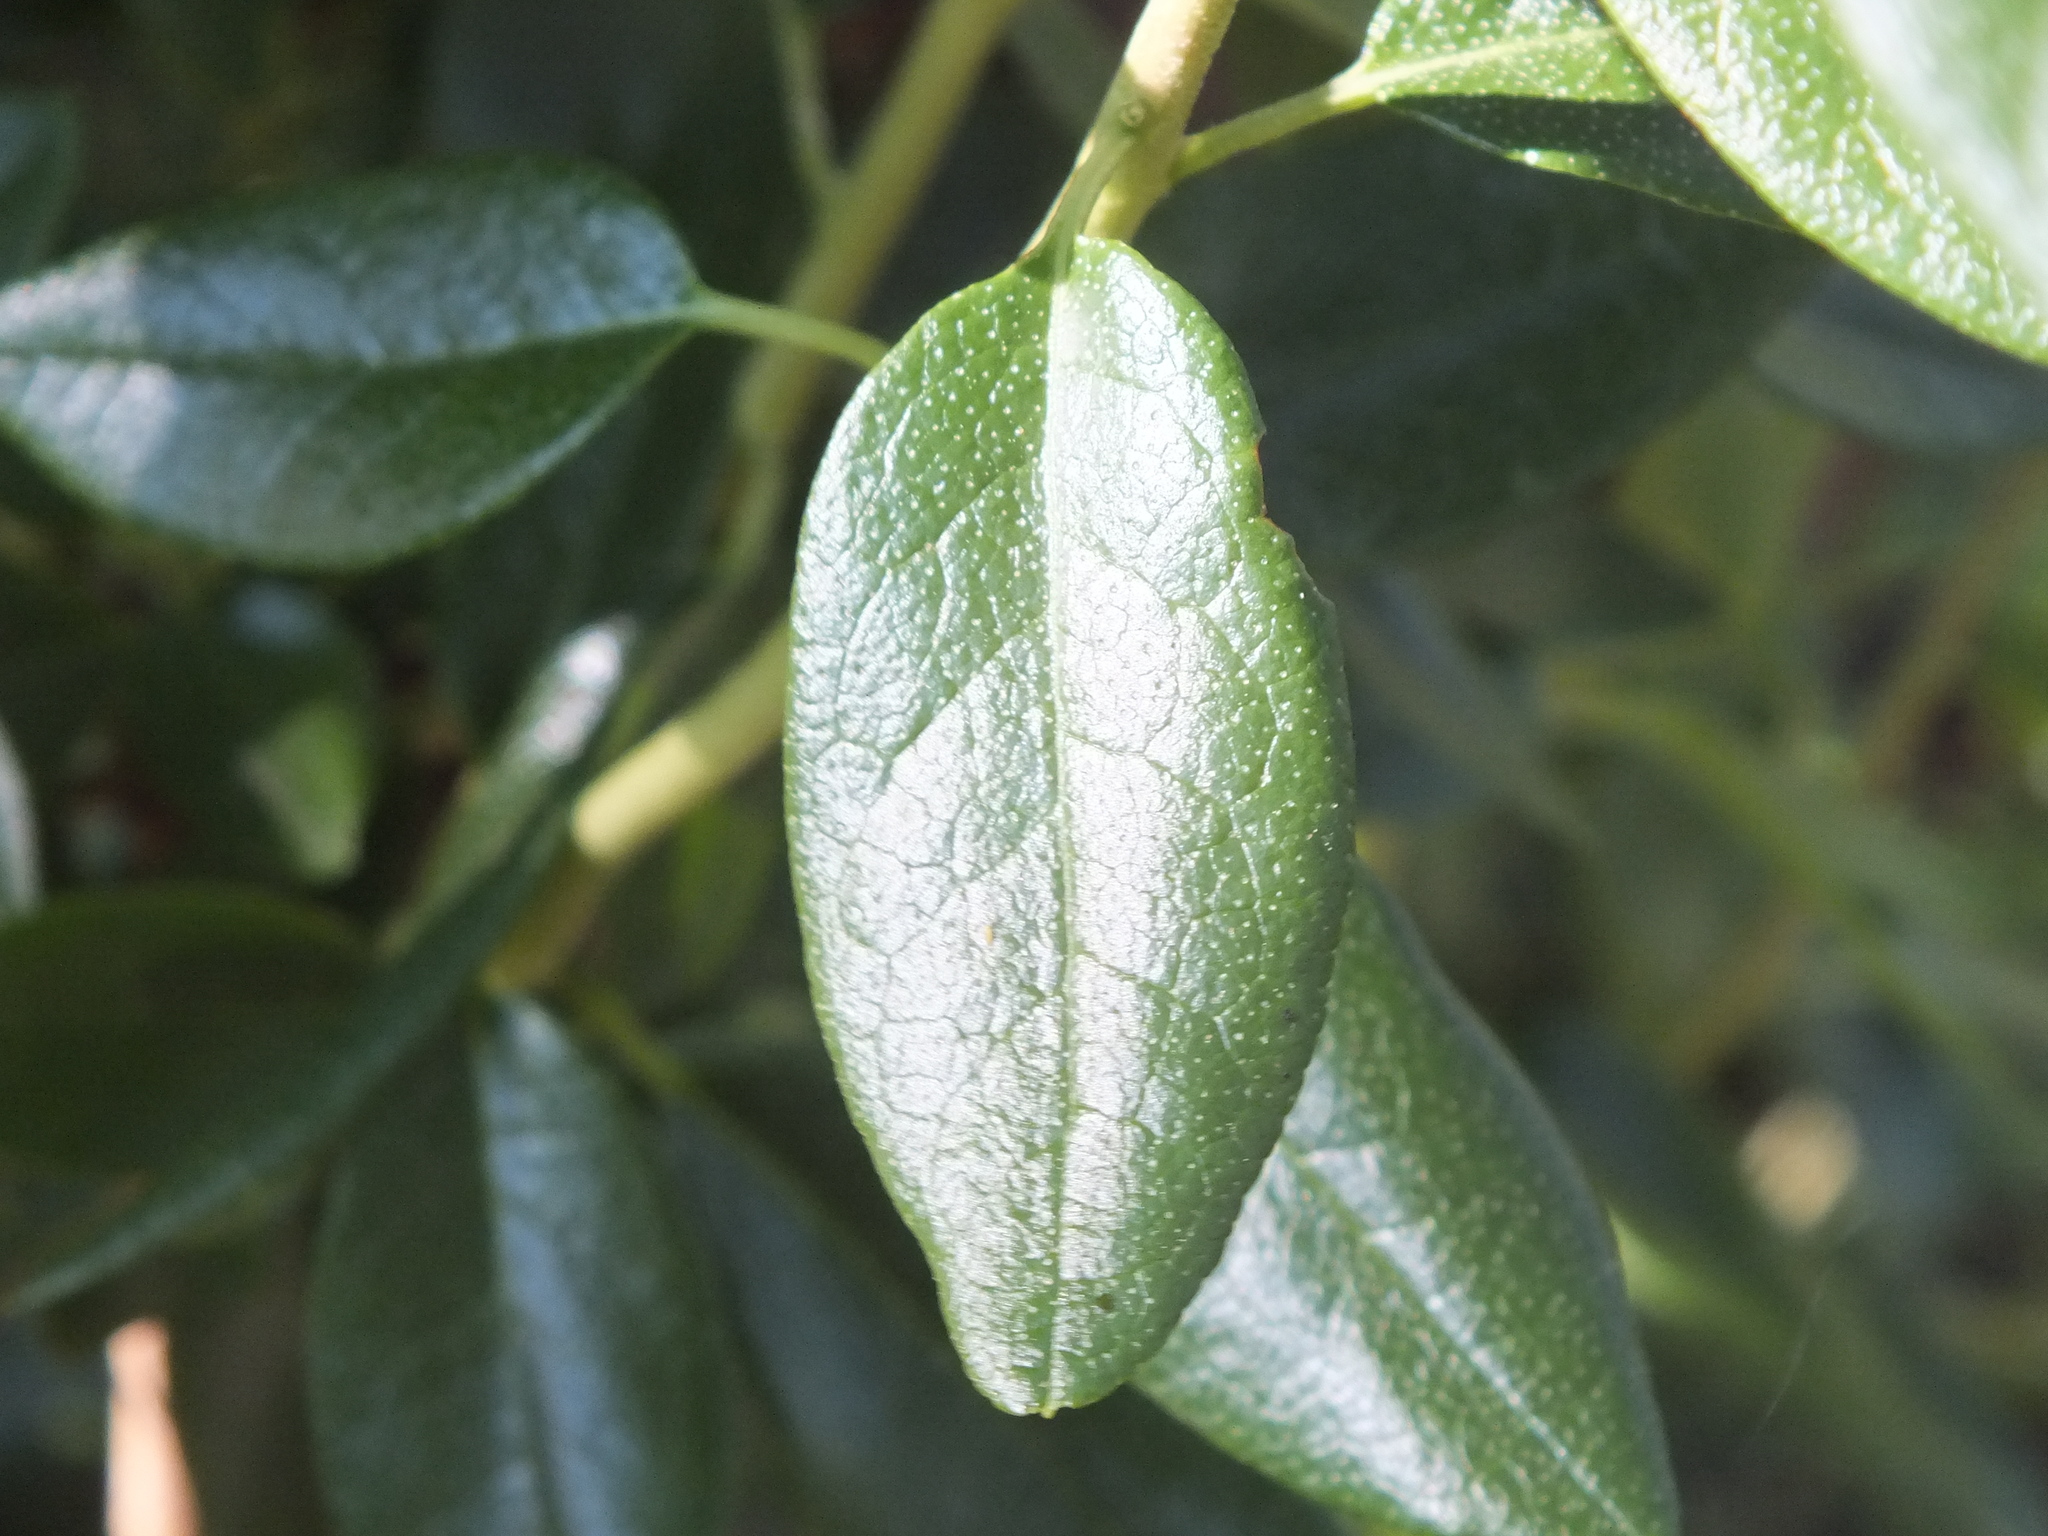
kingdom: Plantae
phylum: Tracheophyta
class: Magnoliopsida
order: Ericales
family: Ericaceae
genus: Rhododendron
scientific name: Rhododendron dauricum
